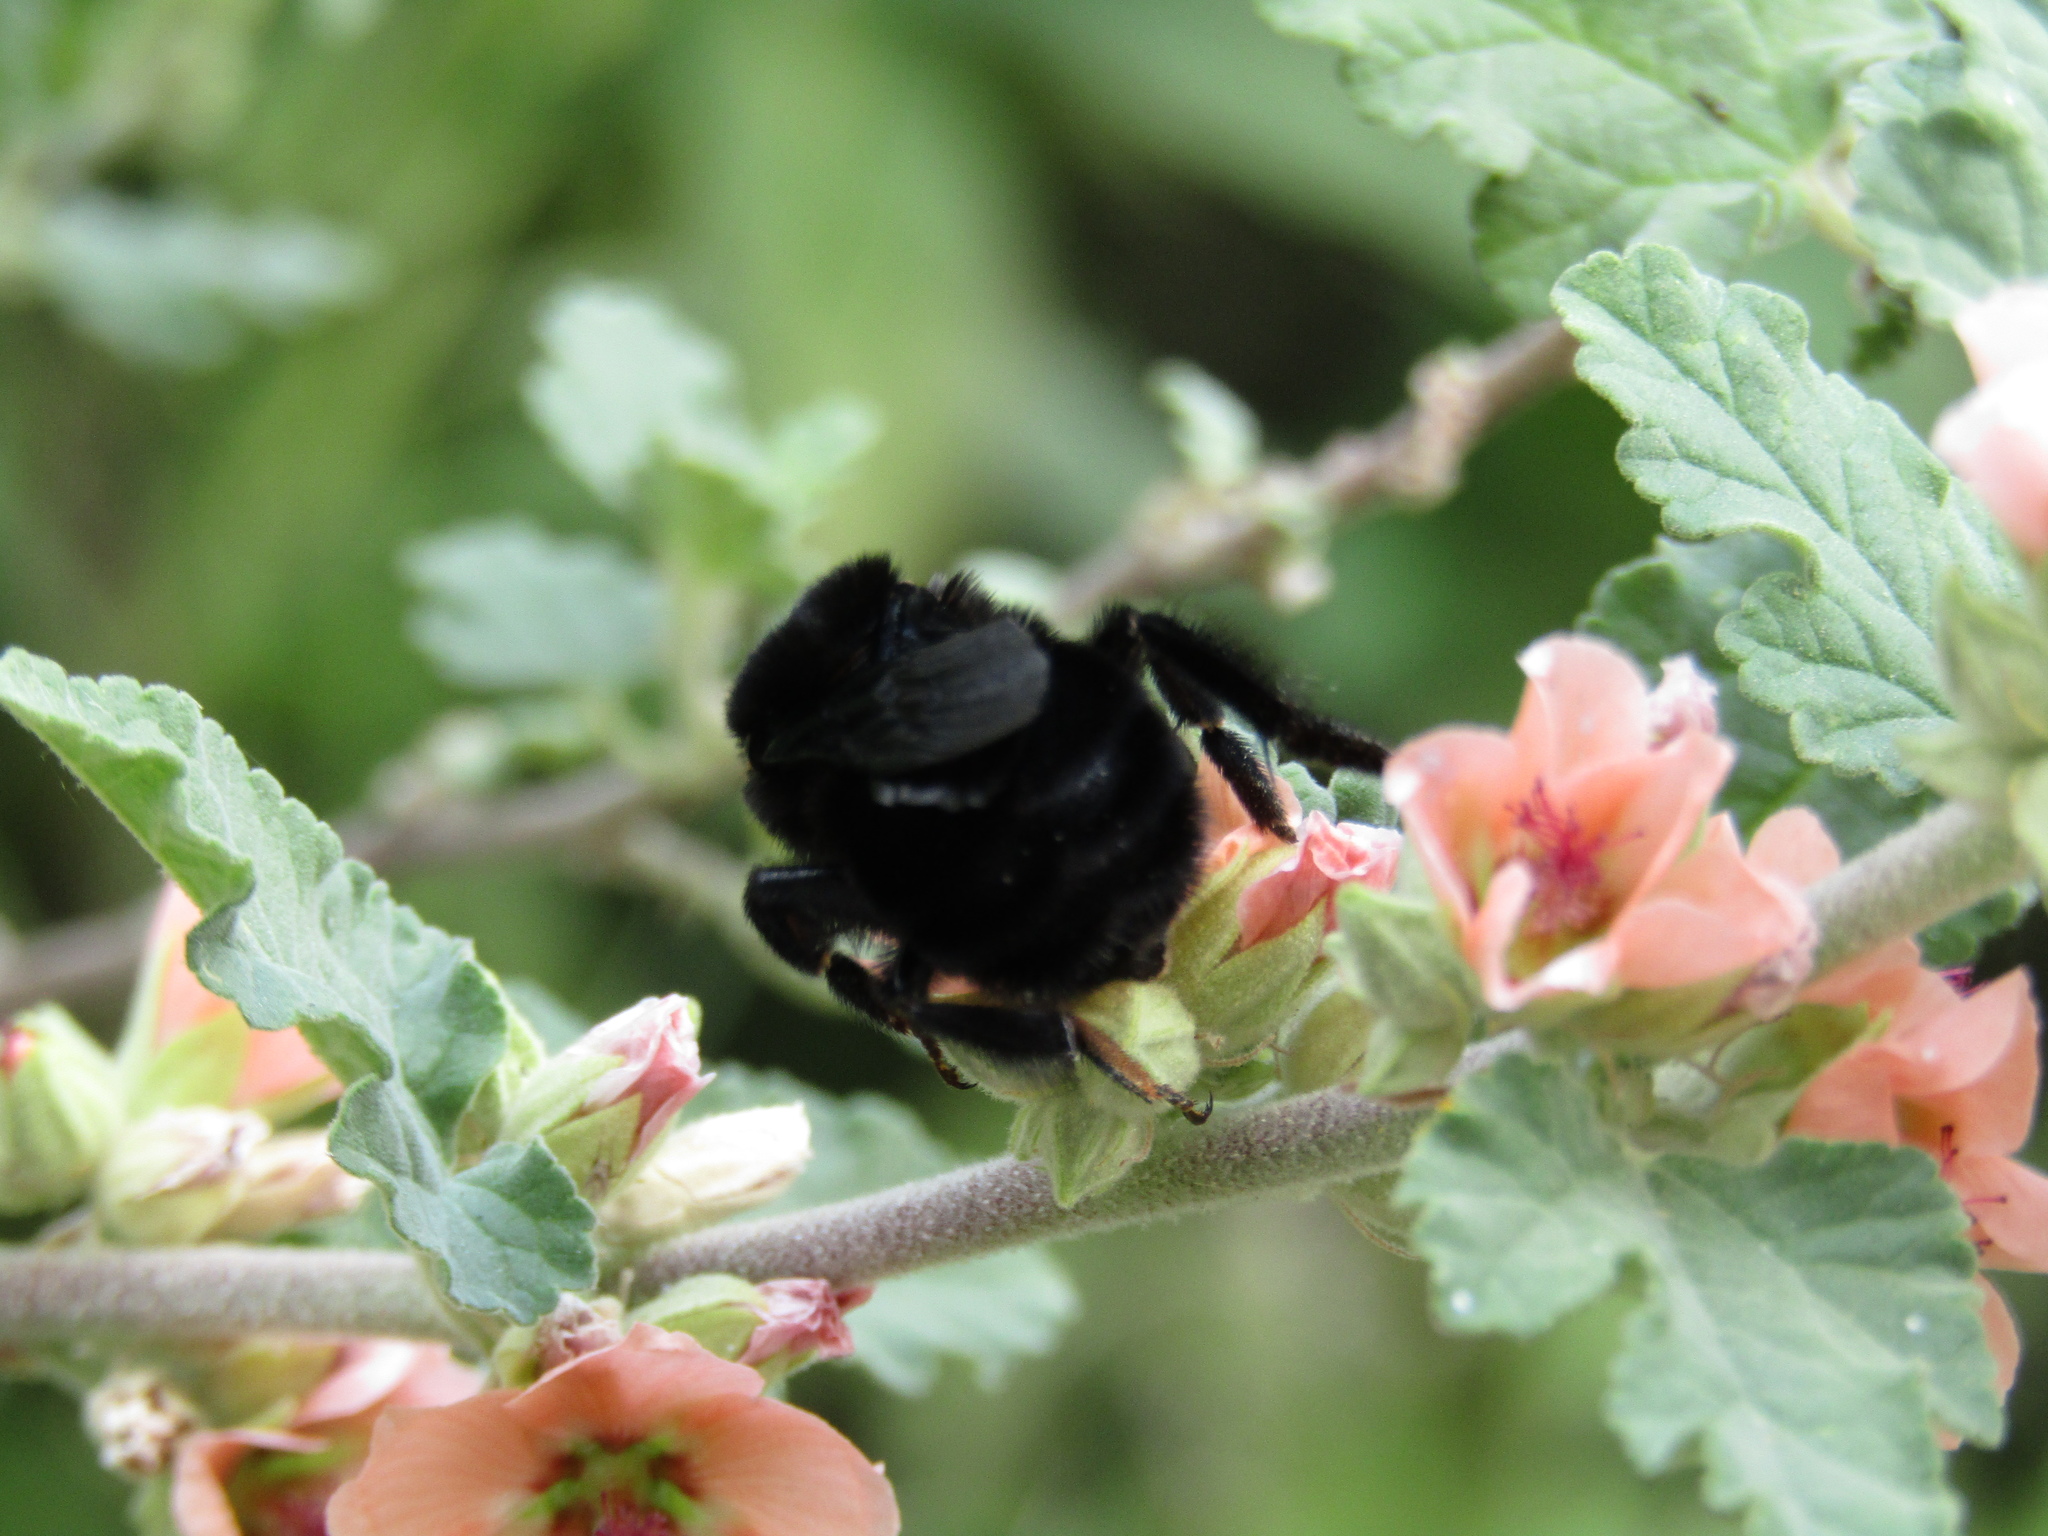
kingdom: Animalia
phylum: Arthropoda
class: Insecta
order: Hymenoptera
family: Apidae
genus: Bombus
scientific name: Bombus pauloensis
